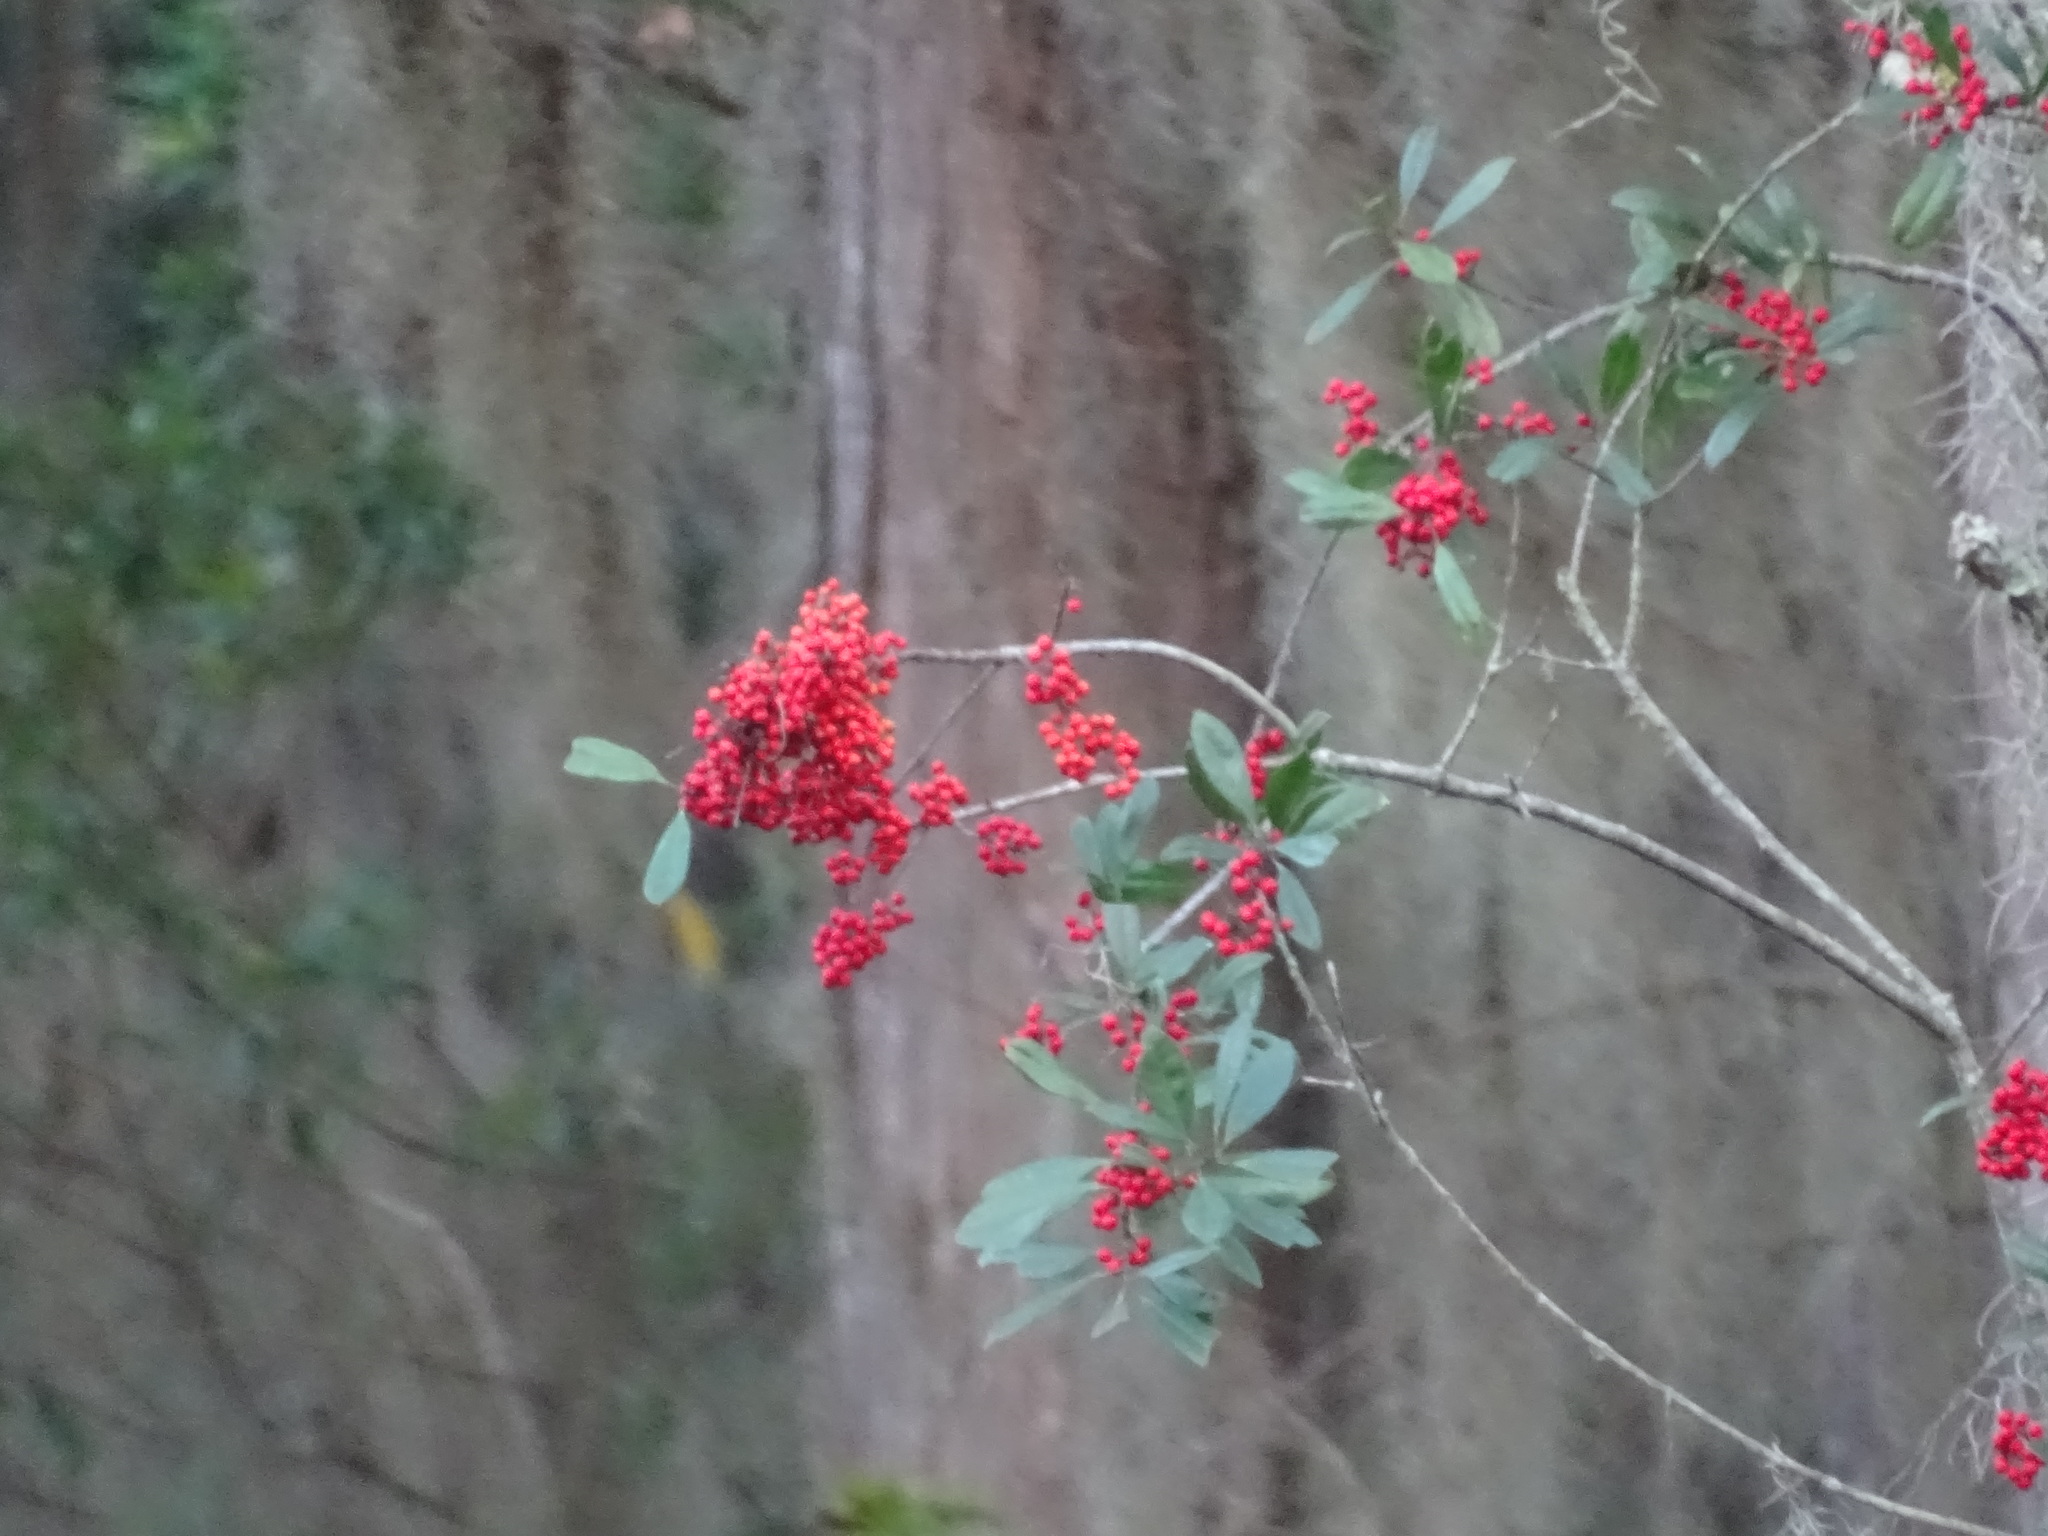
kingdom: Plantae
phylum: Tracheophyta
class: Magnoliopsida
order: Aquifoliales
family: Aquifoliaceae
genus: Ilex
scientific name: Ilex cassine
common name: Dahoon
